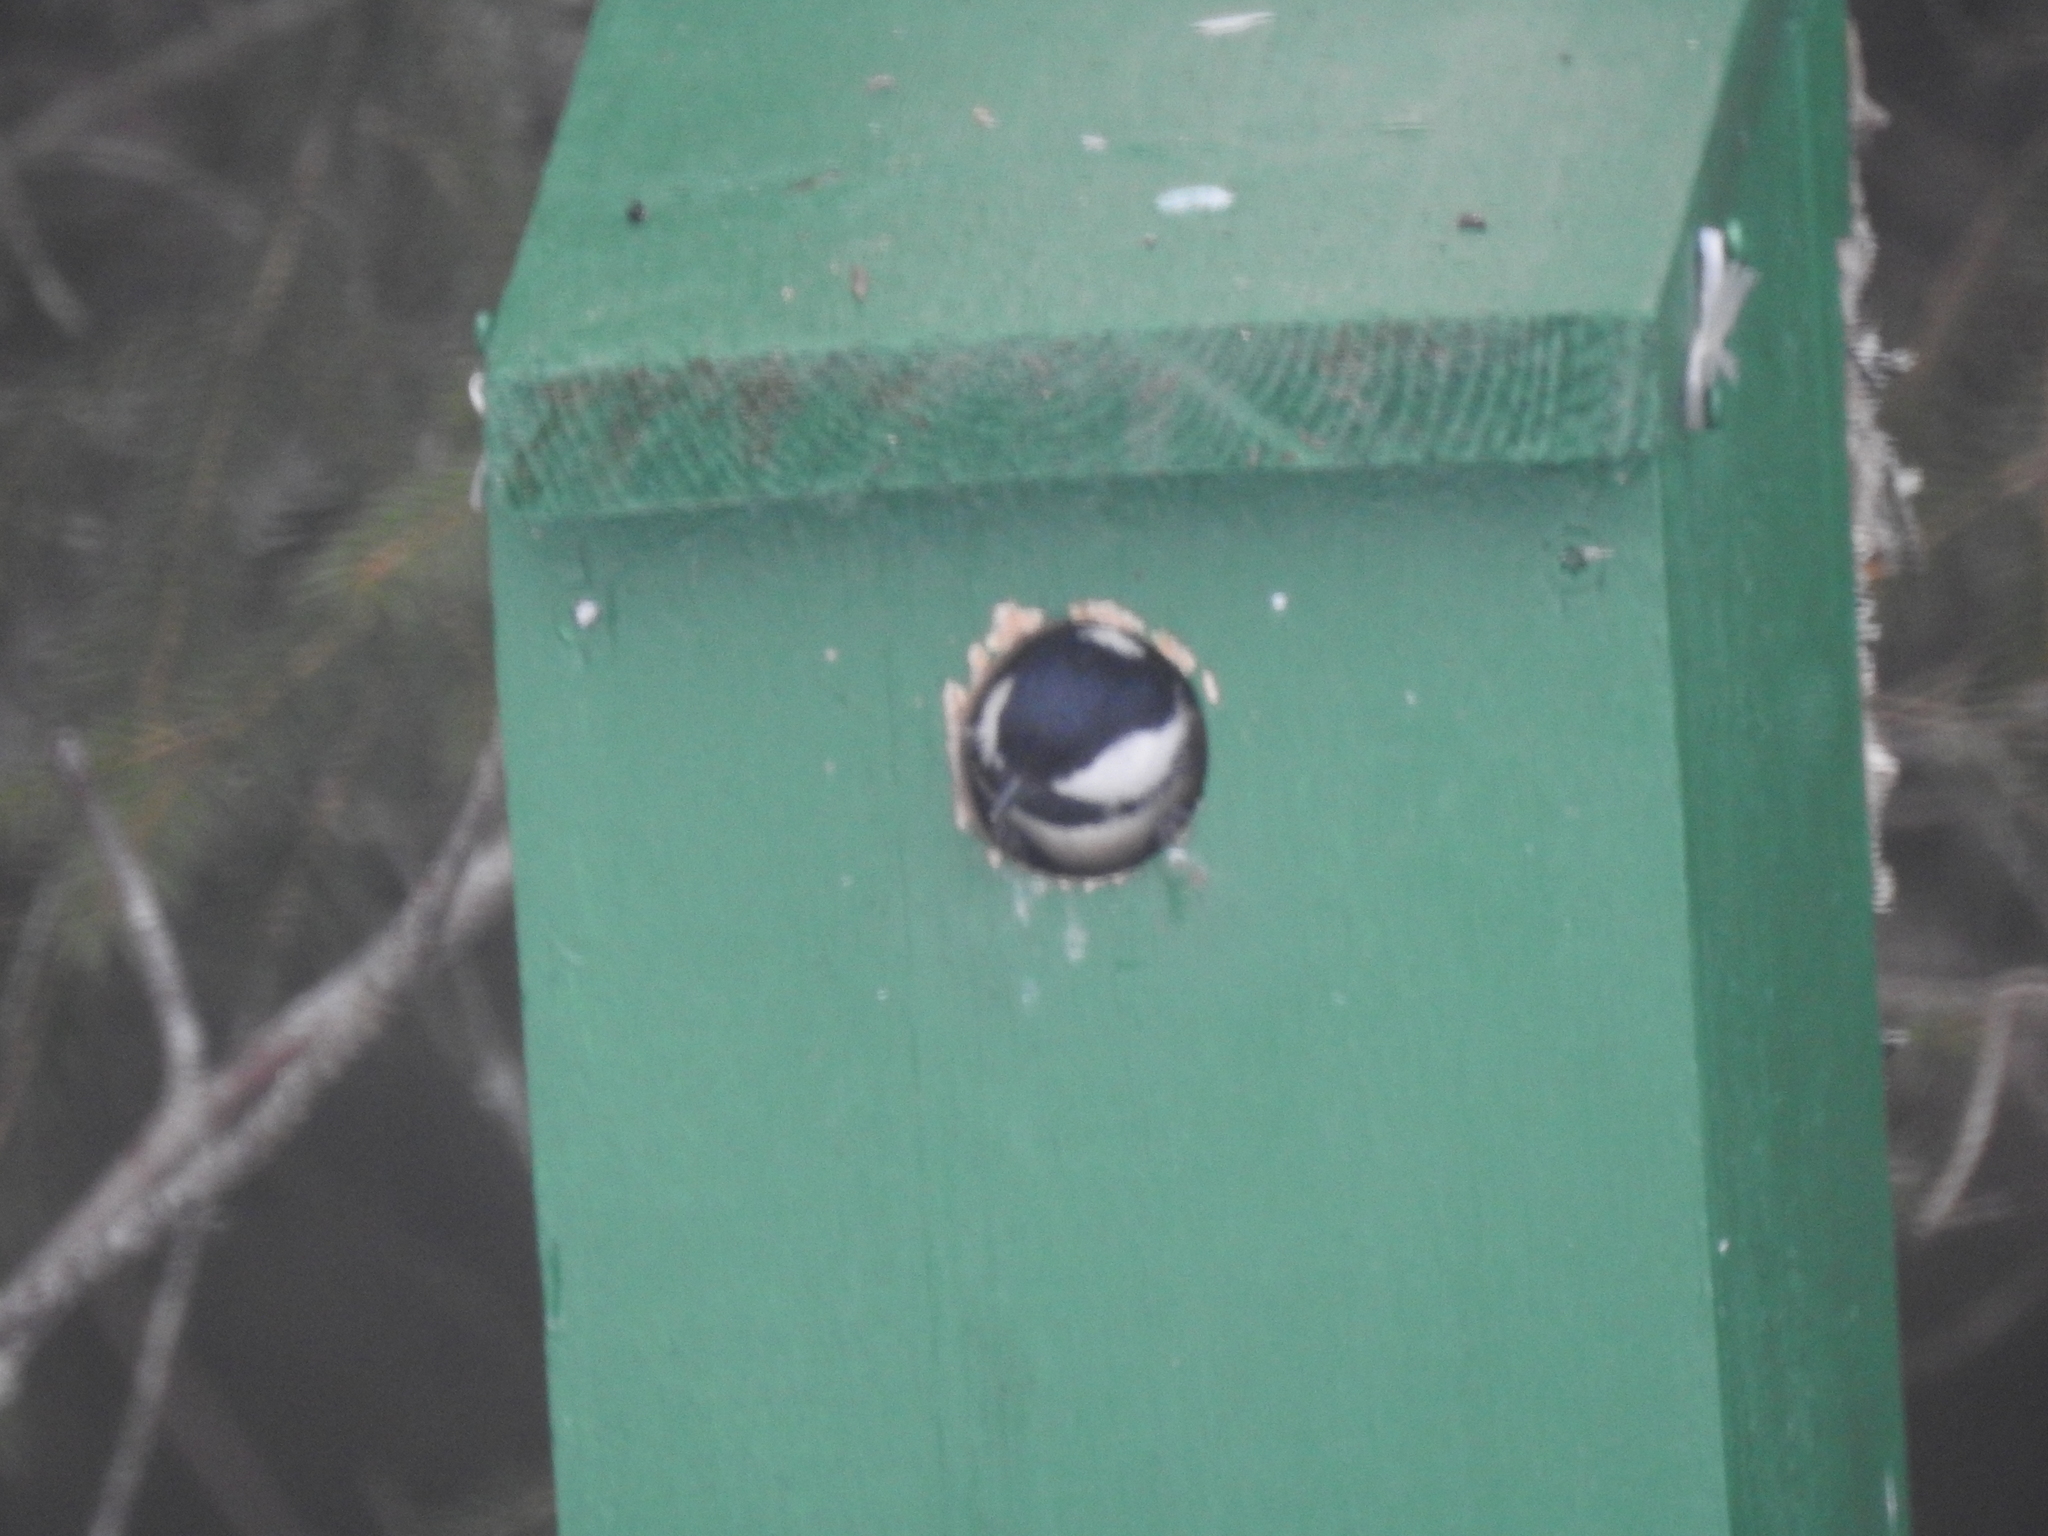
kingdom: Animalia
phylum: Chordata
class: Aves
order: Passeriformes
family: Paridae
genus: Periparus
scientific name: Periparus ater
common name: Coal tit
